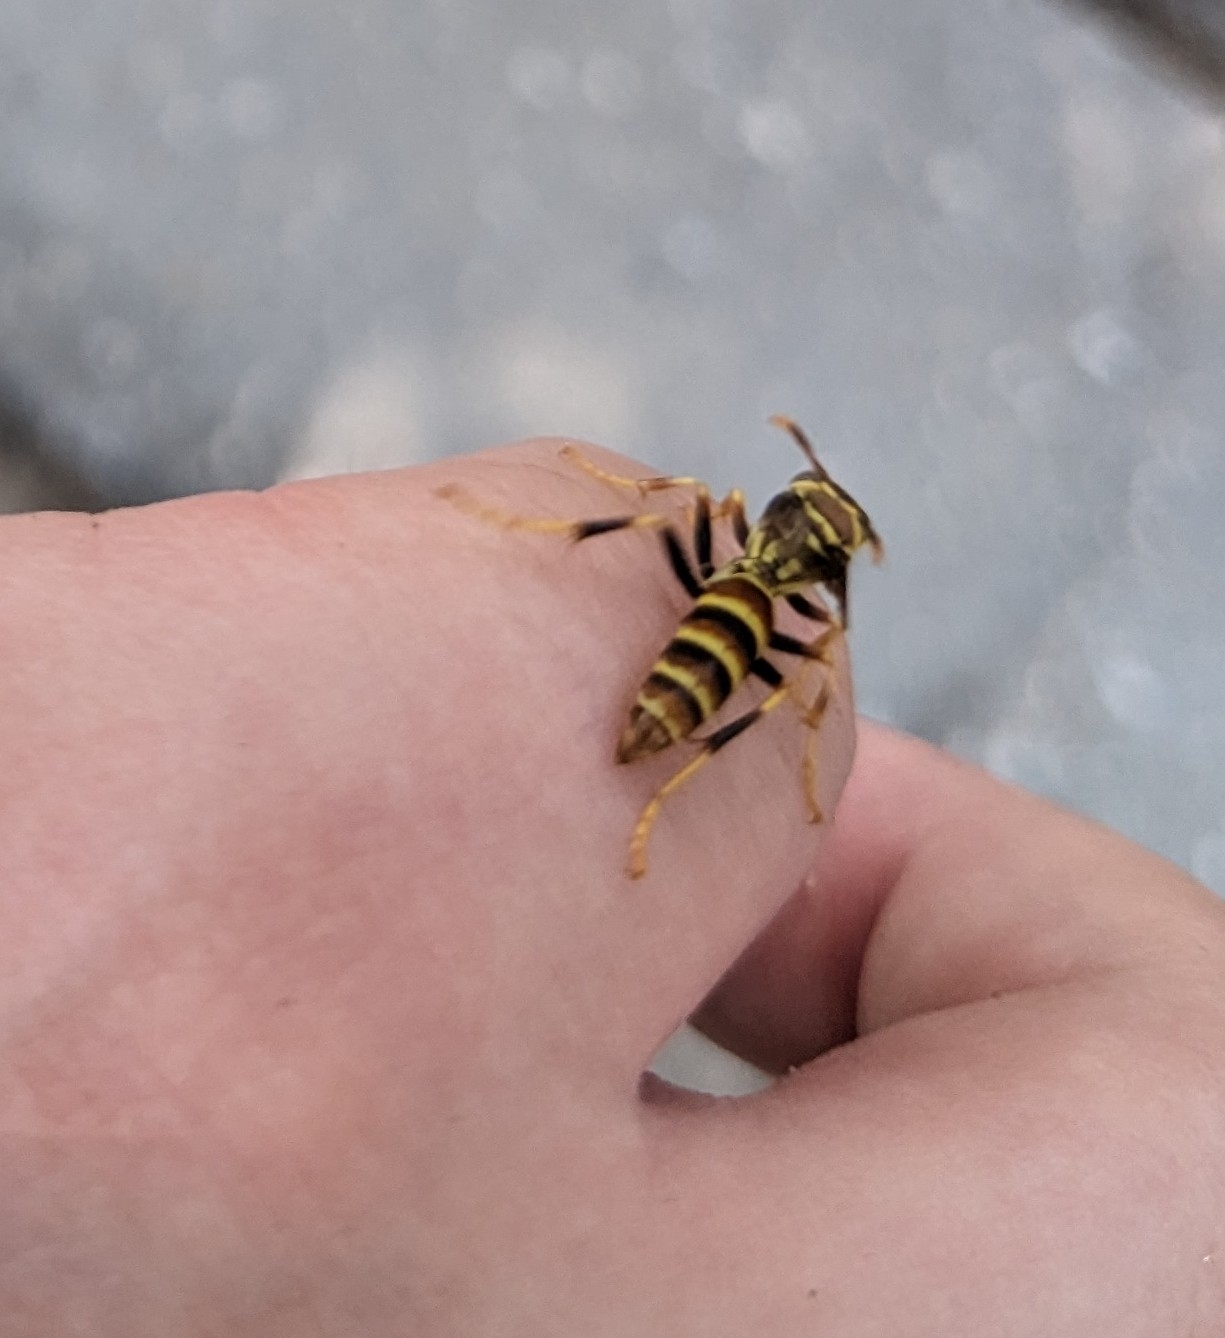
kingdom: Animalia
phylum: Arthropoda
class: Insecta
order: Hymenoptera
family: Eumenidae
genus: Polistes
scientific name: Polistes exclamans
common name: Paper wasp
